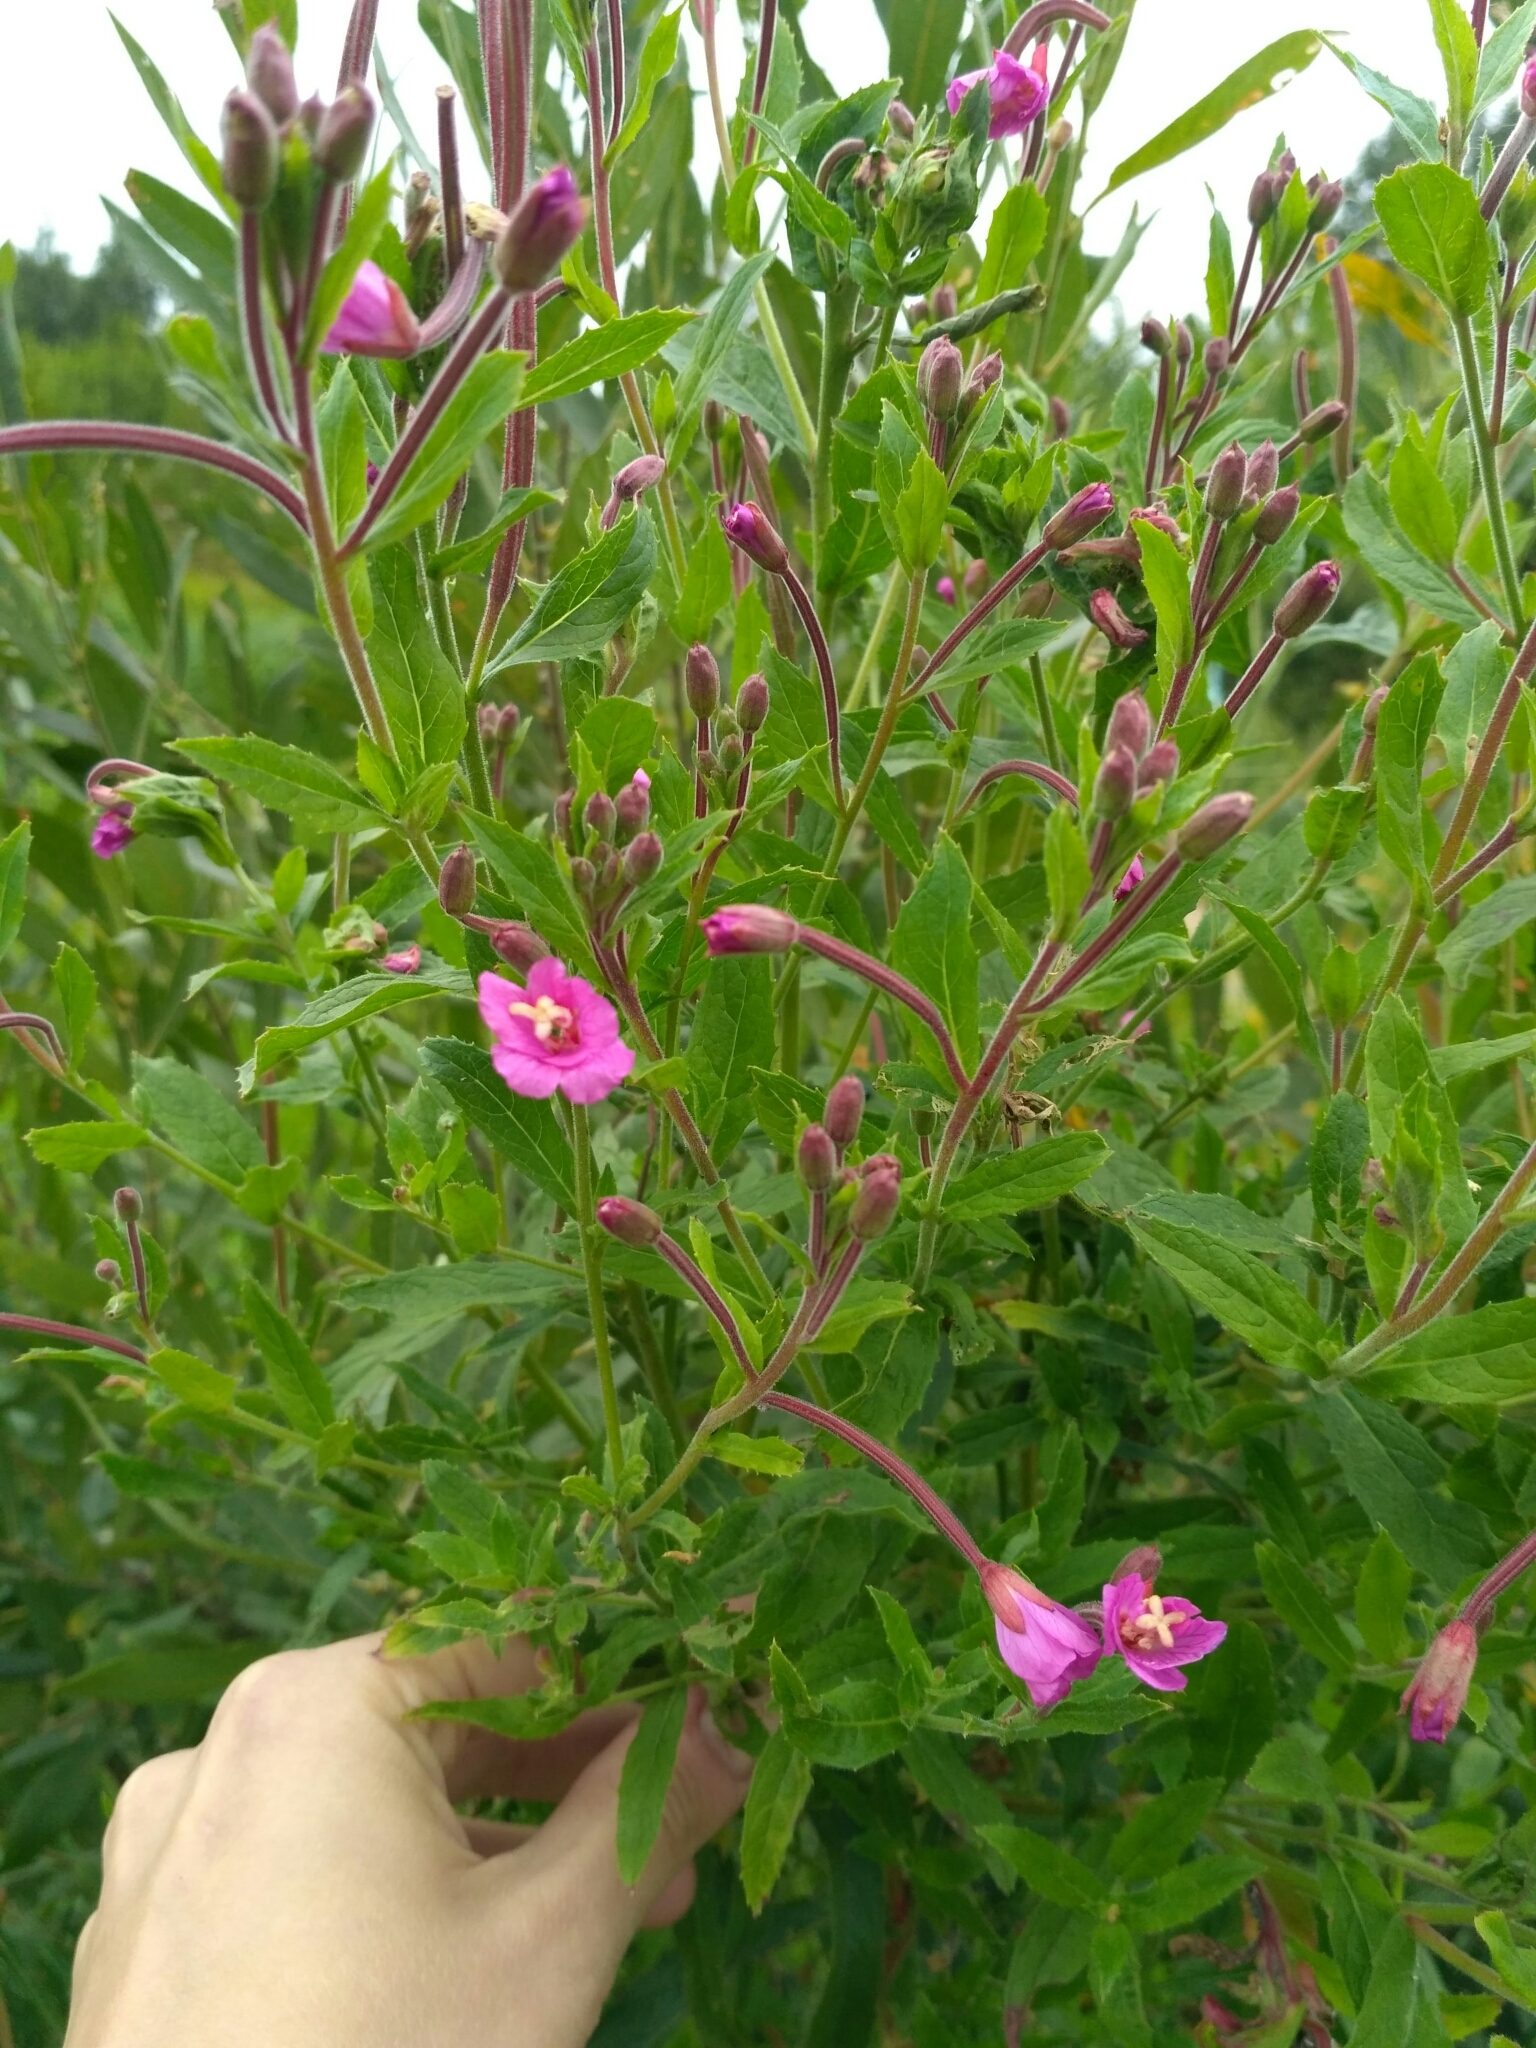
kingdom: Plantae
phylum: Tracheophyta
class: Magnoliopsida
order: Myrtales
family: Onagraceae
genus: Epilobium
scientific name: Epilobium hirsutum
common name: Great willowherb
